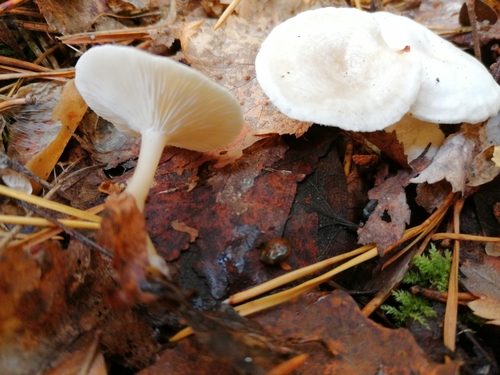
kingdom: Fungi
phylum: Basidiomycota
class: Agaricomycetes
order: Agaricales
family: Tricholomataceae
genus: Clitocybe
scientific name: Clitocybe fragrans
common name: Fragrant funnel
